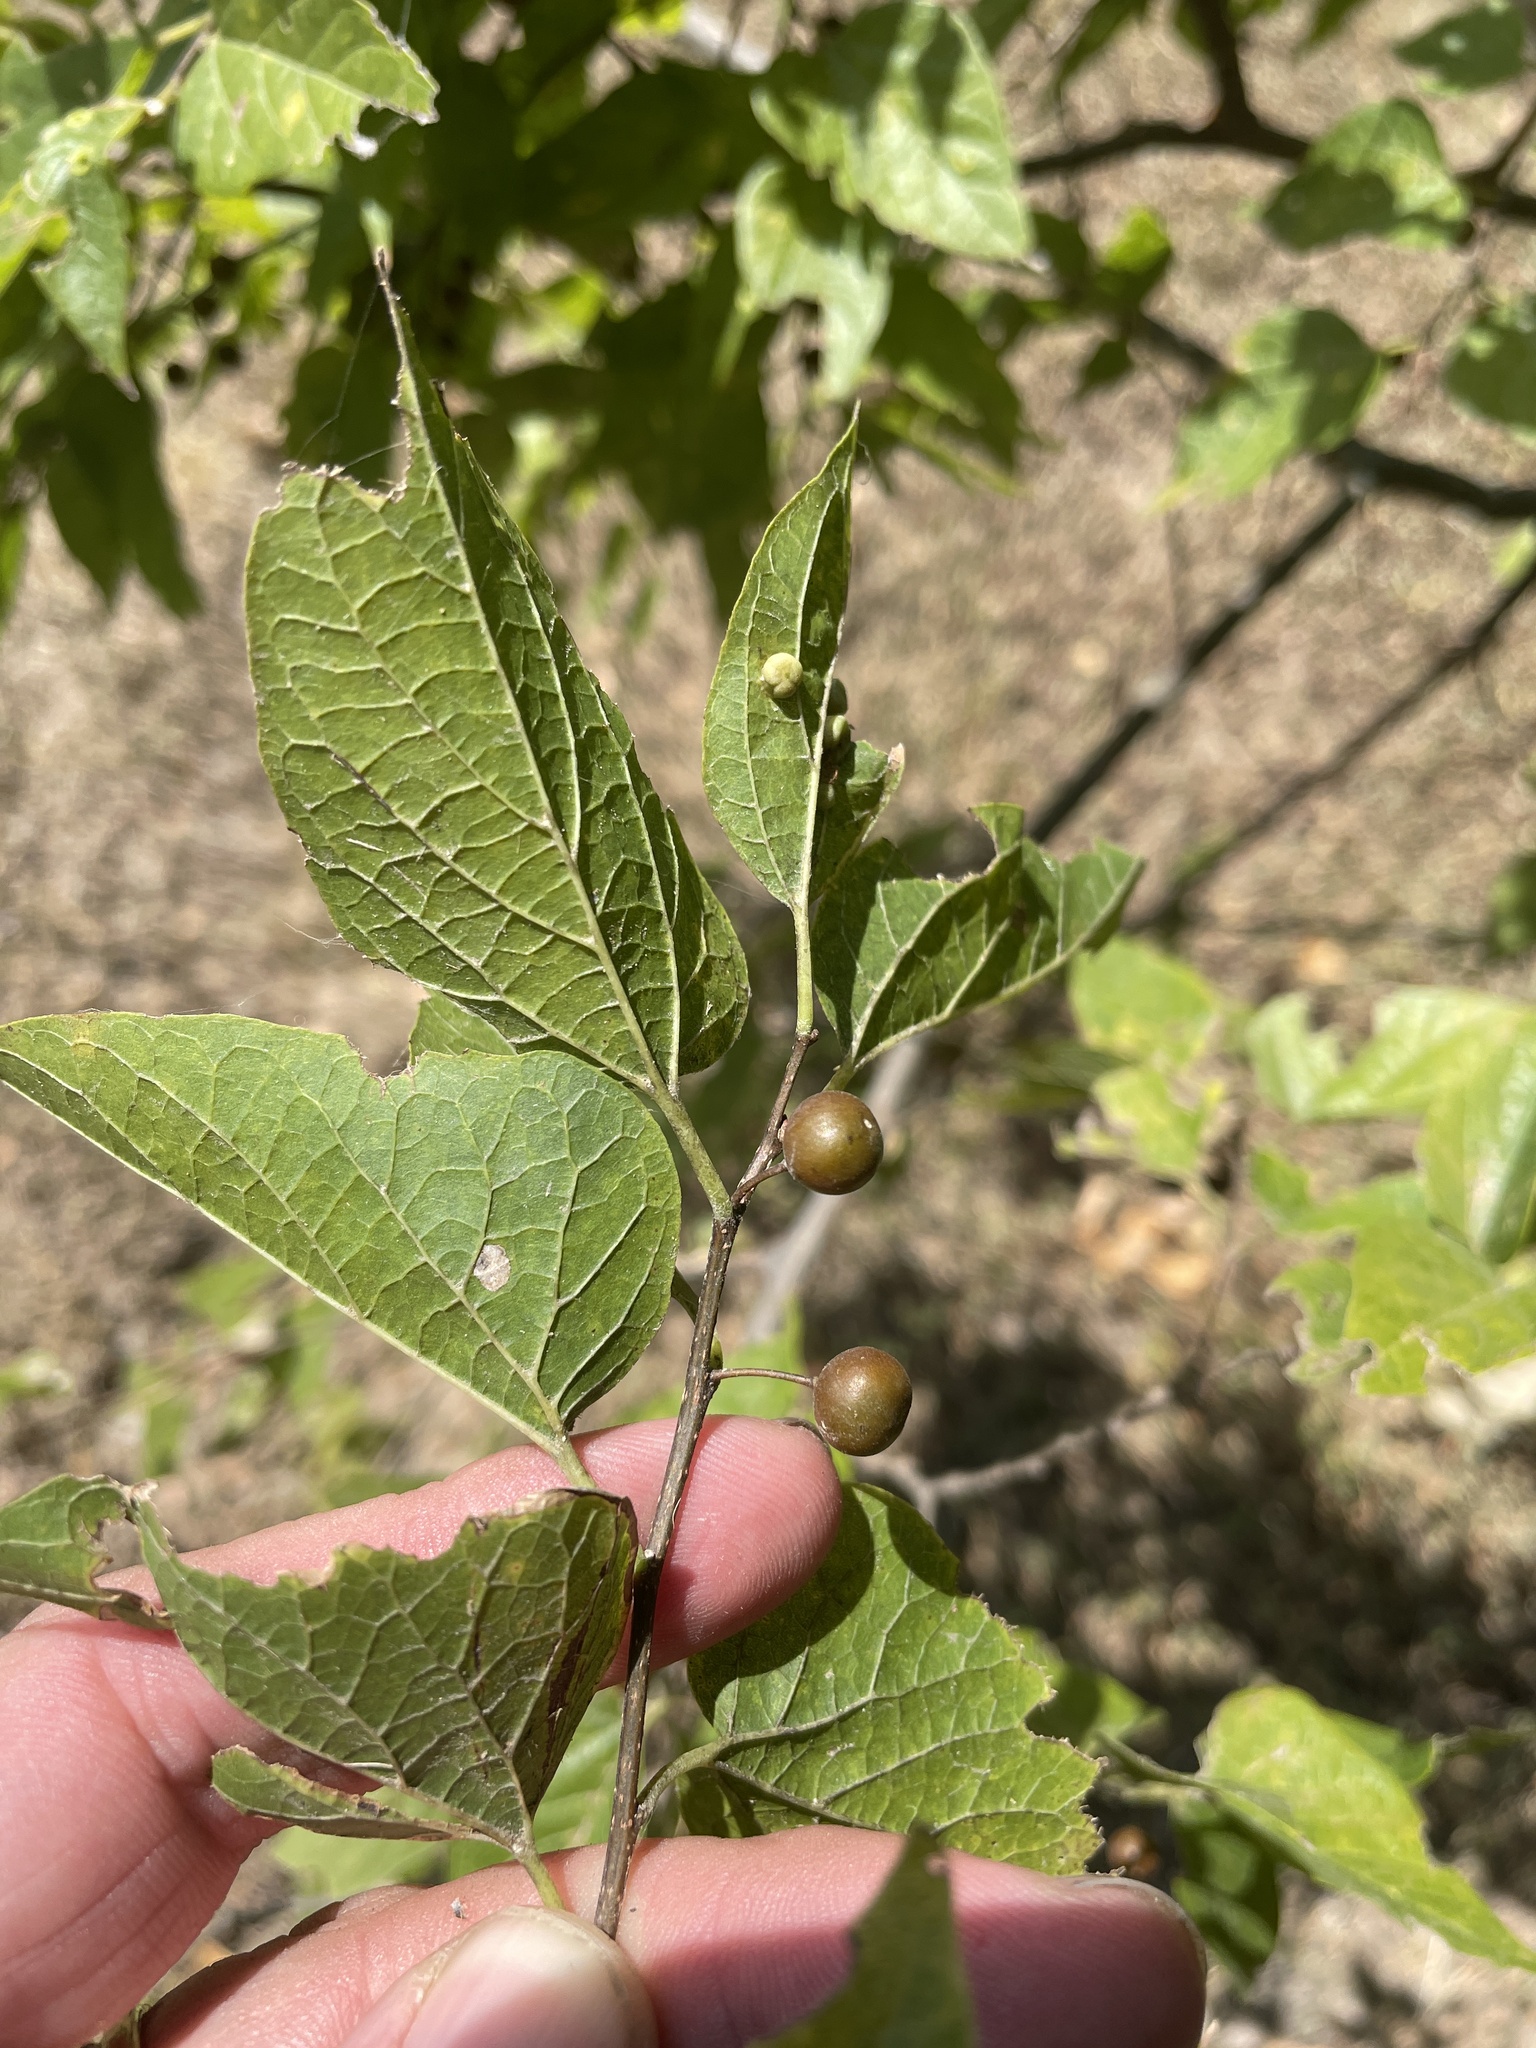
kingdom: Plantae
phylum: Tracheophyta
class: Magnoliopsida
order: Rosales
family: Cannabaceae
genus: Celtis
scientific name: Celtis laevigata
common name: Sugarberry
